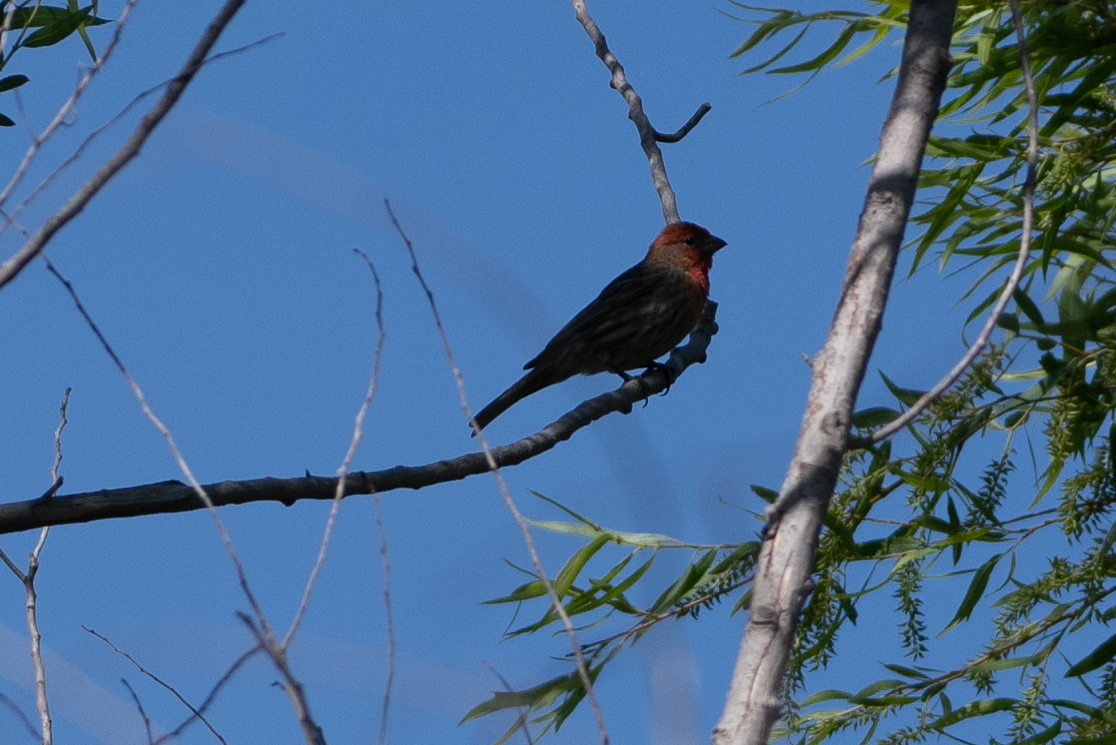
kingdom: Animalia
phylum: Chordata
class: Aves
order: Passeriformes
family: Fringillidae
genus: Haemorhous
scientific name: Haemorhous mexicanus
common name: House finch
